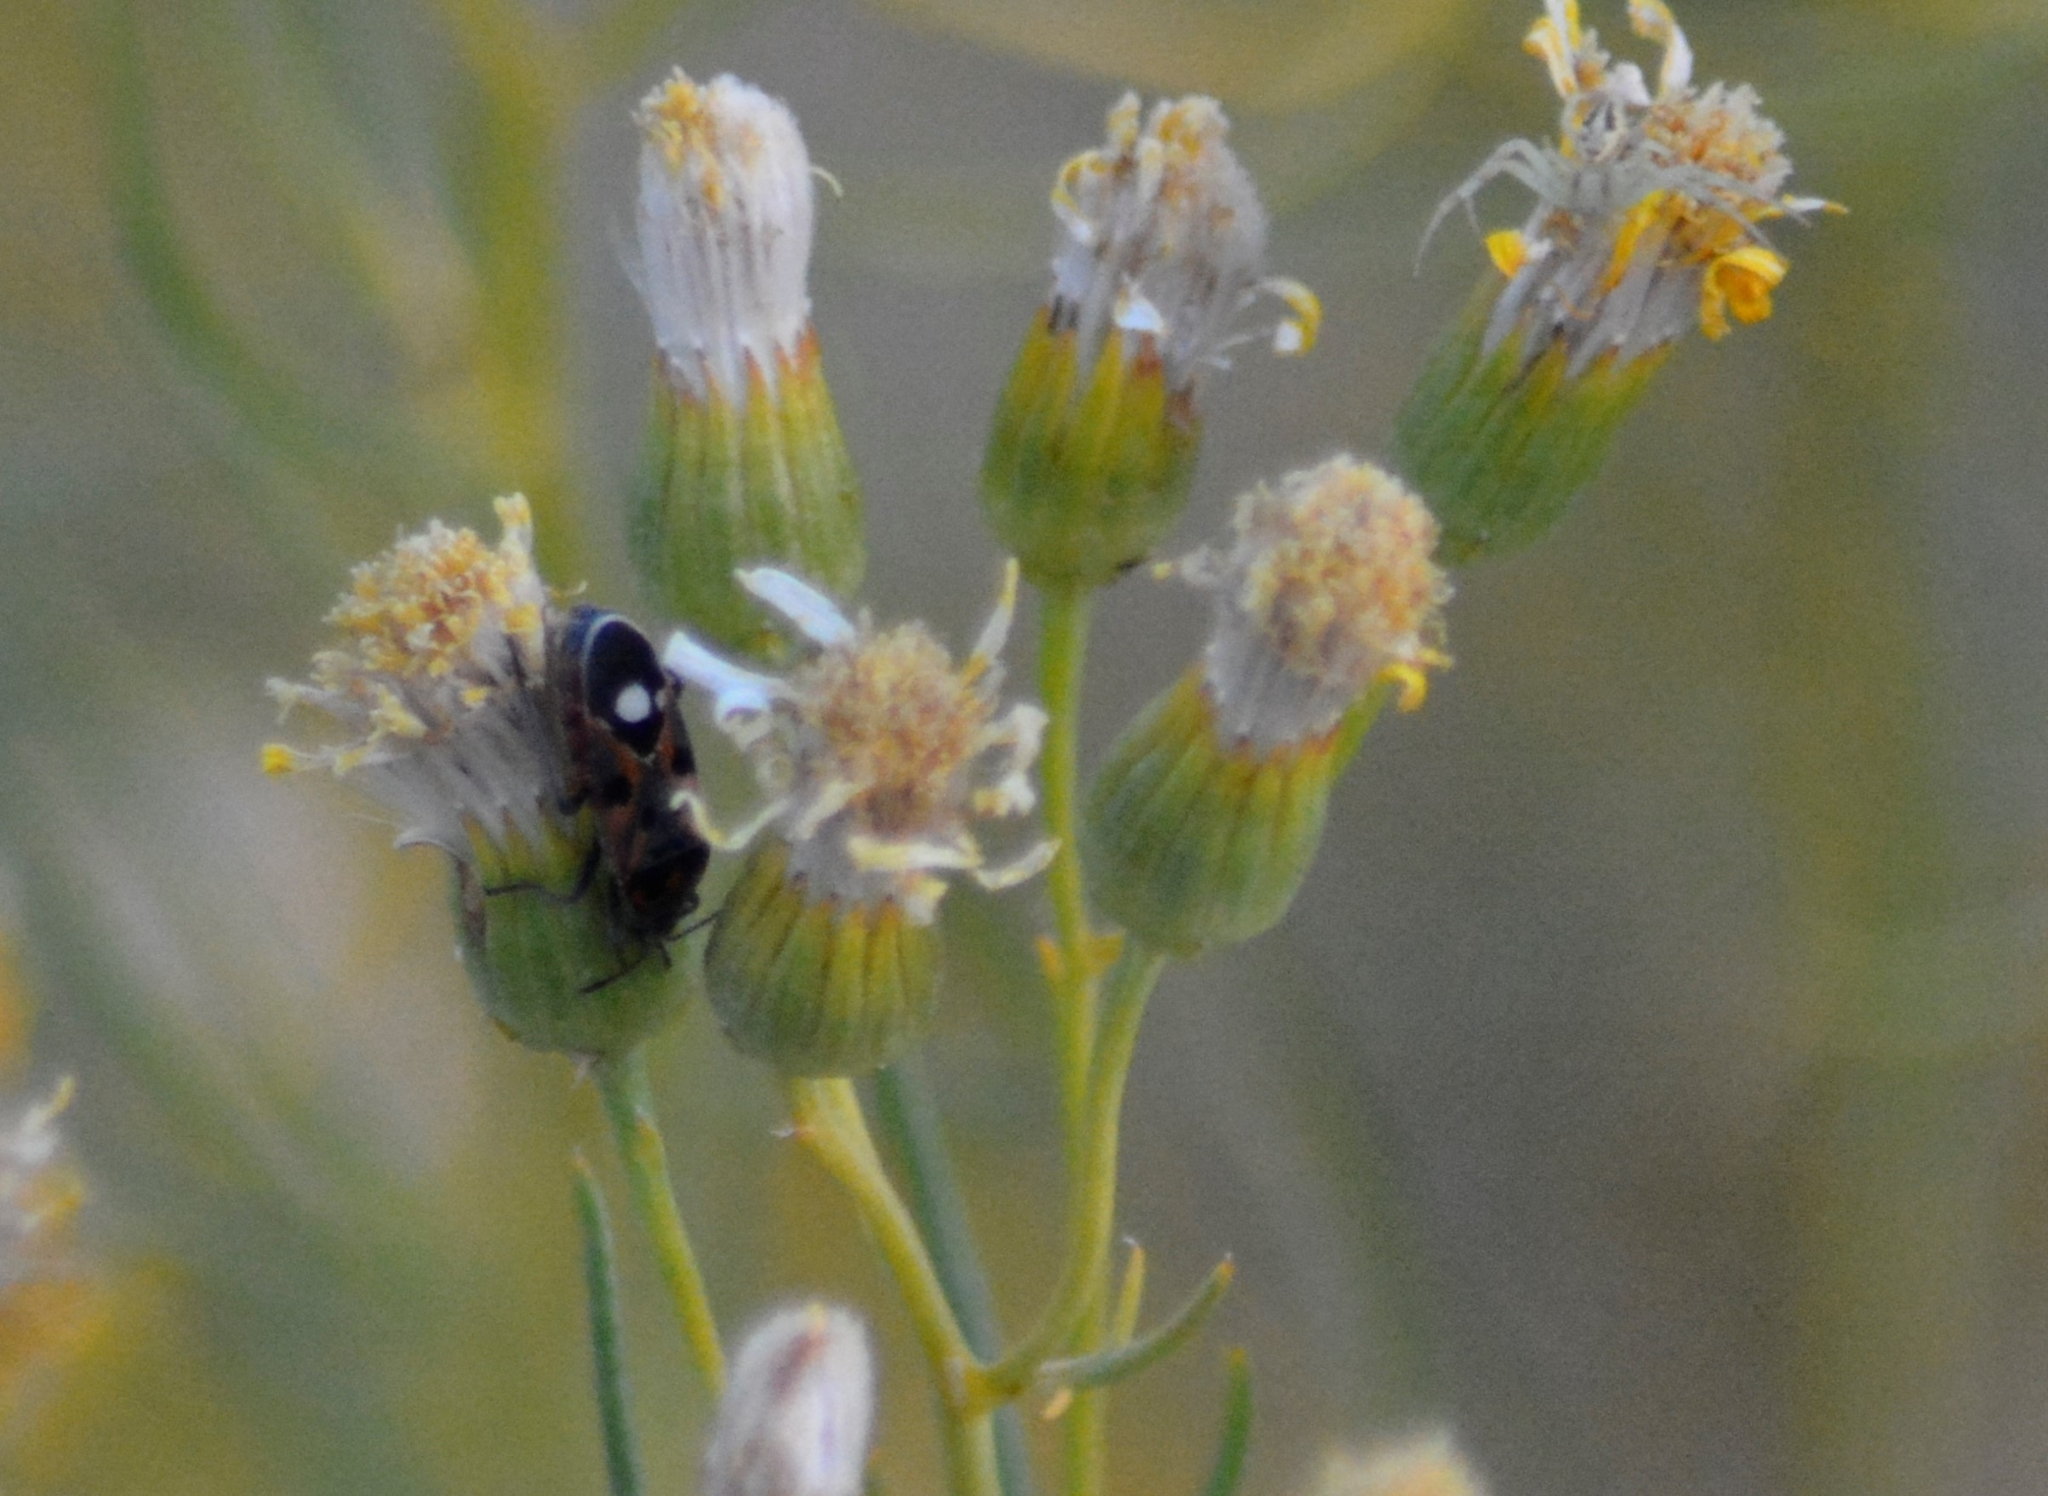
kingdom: Animalia
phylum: Arthropoda
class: Insecta
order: Hemiptera
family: Lygaeidae
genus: Lygaeus
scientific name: Lygaeus alboornatus
